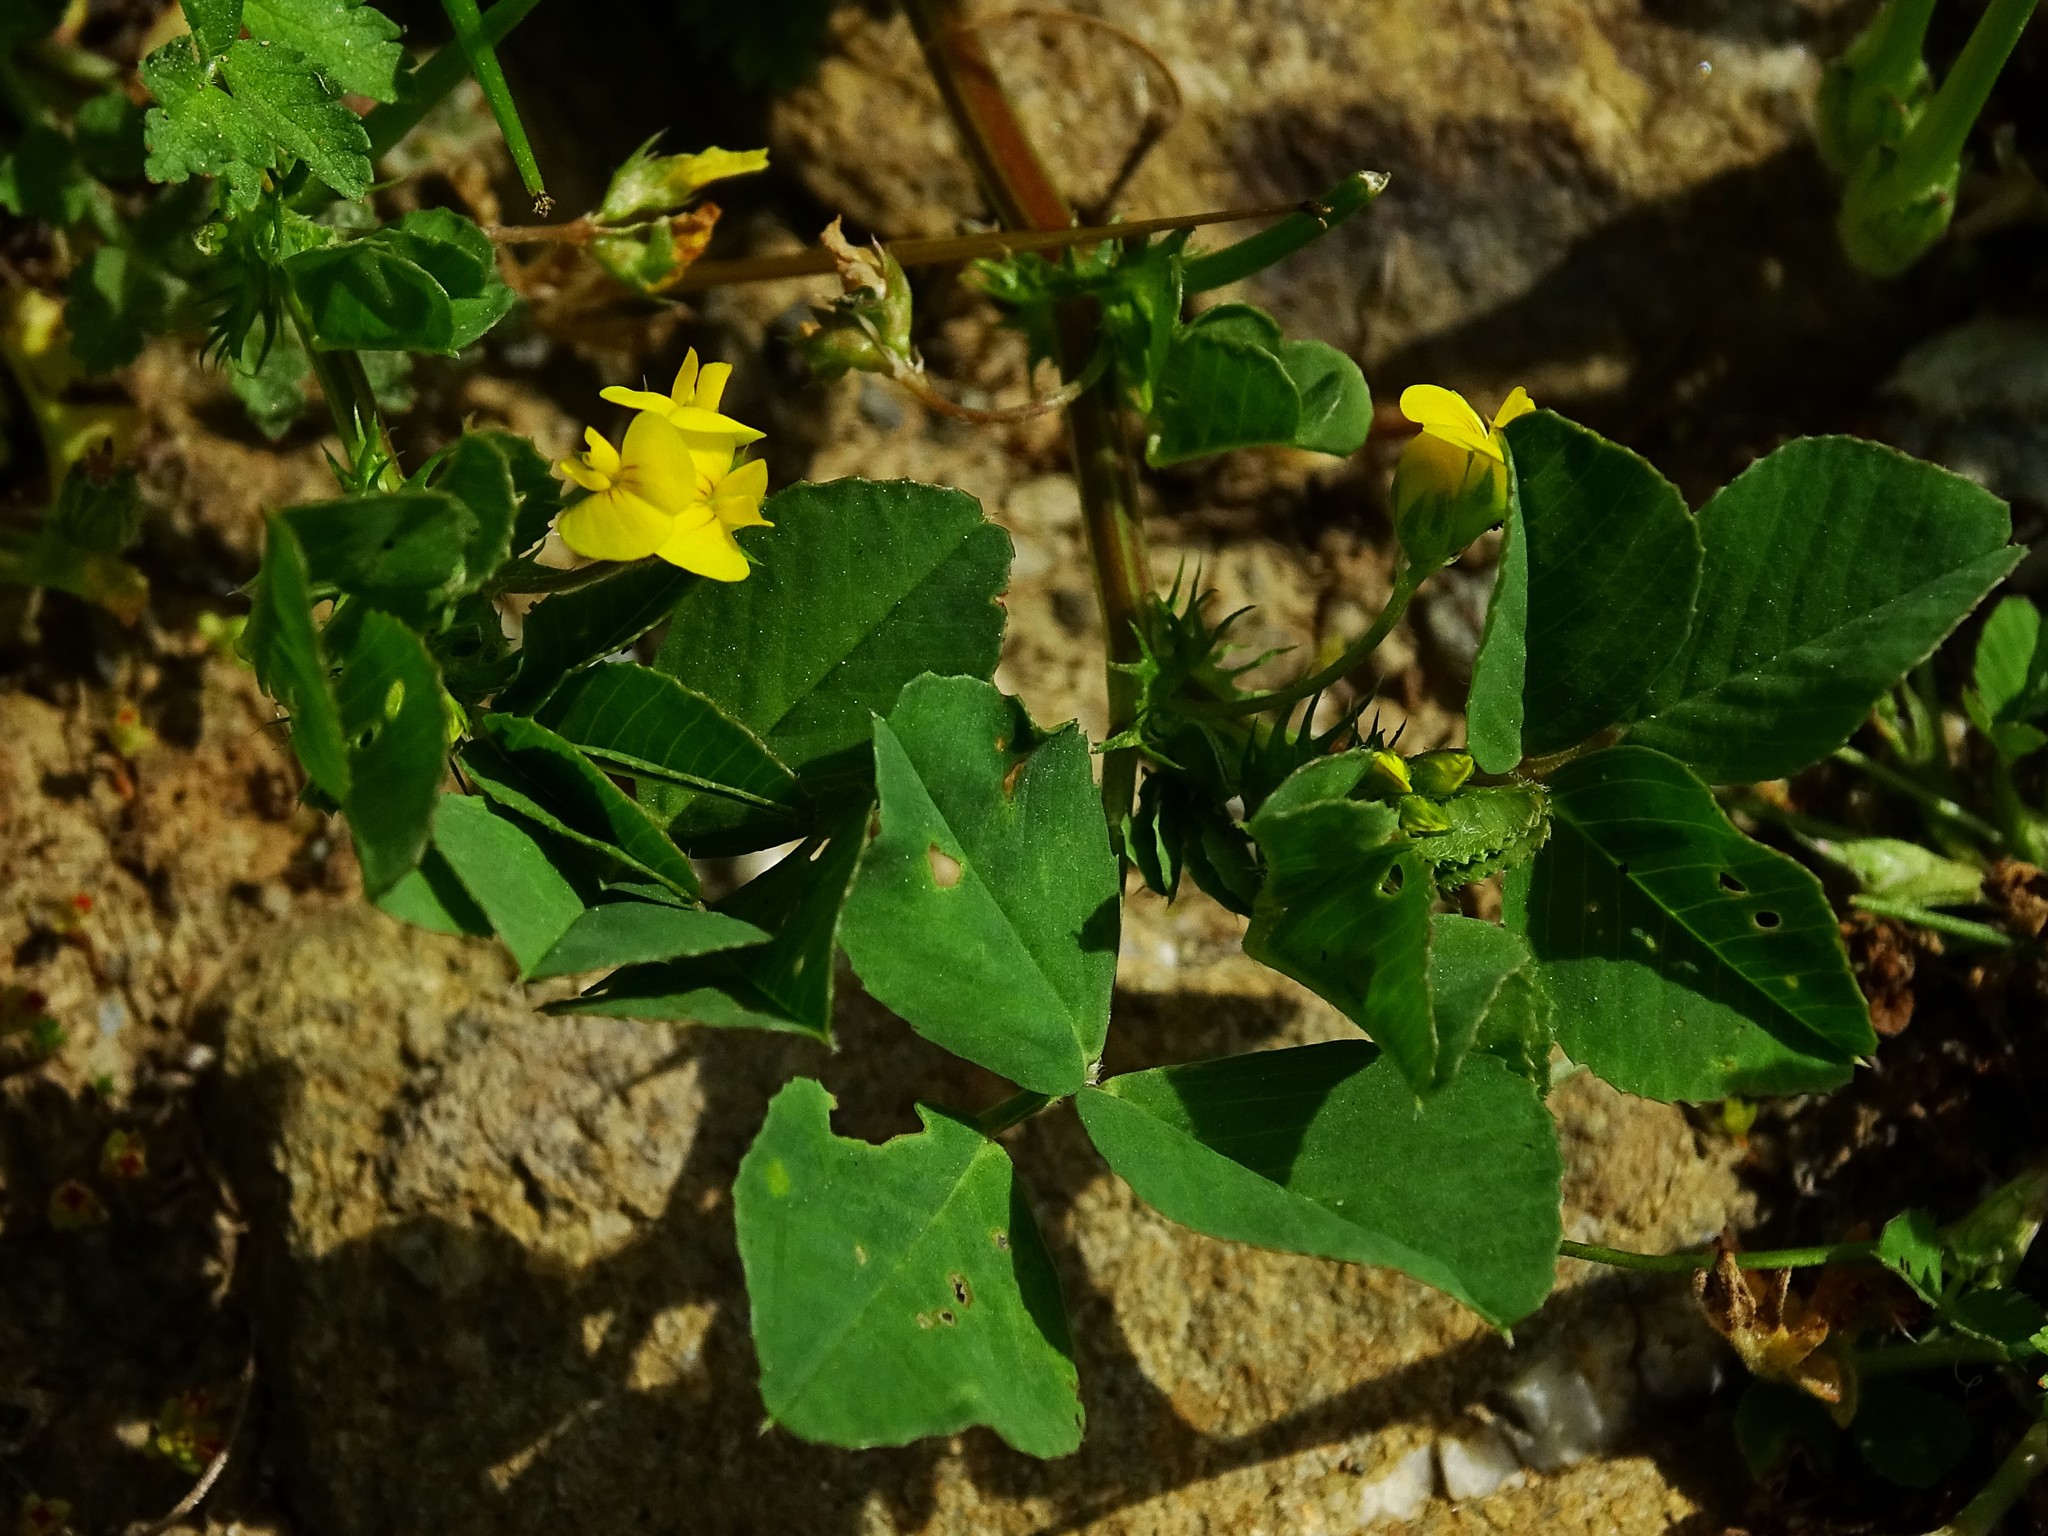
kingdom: Plantae
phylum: Tracheophyta
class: Magnoliopsida
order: Fabales
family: Fabaceae
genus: Medicago
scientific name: Medicago polymorpha
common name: Burclover
